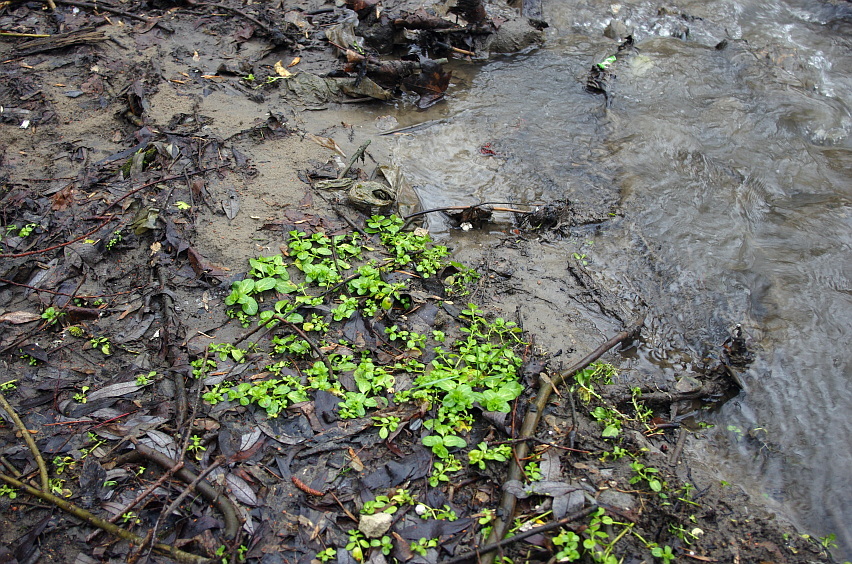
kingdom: Plantae
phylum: Tracheophyta
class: Magnoliopsida
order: Lamiales
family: Plantaginaceae
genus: Veronica
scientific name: Veronica beccabunga
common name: Brooklime
